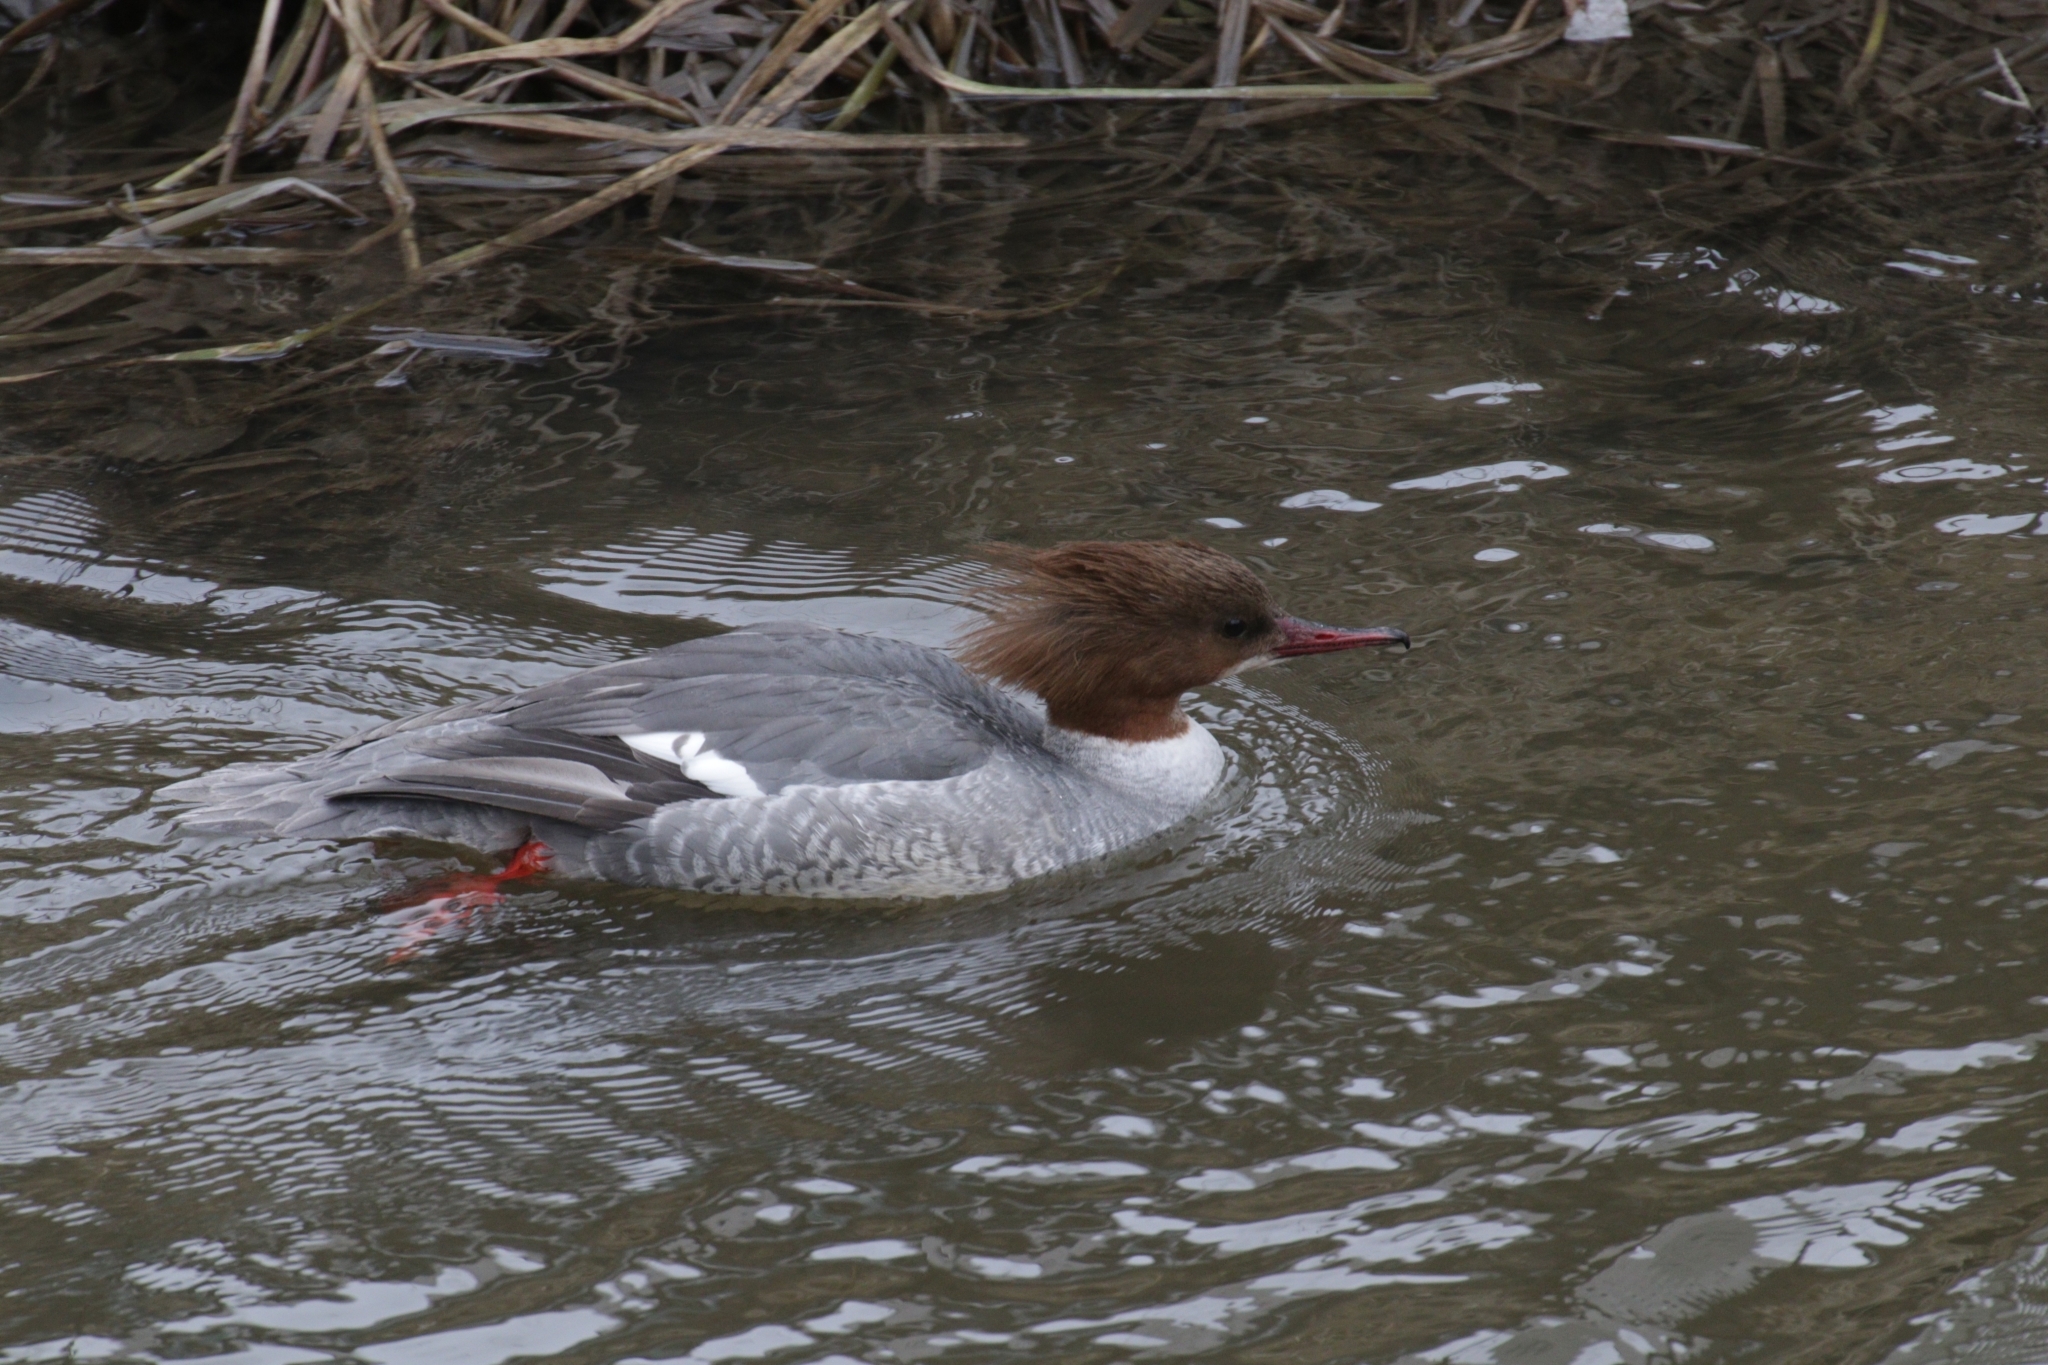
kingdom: Animalia
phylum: Chordata
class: Aves
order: Anseriformes
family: Anatidae
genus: Mergus
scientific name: Mergus merganser
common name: Common merganser
